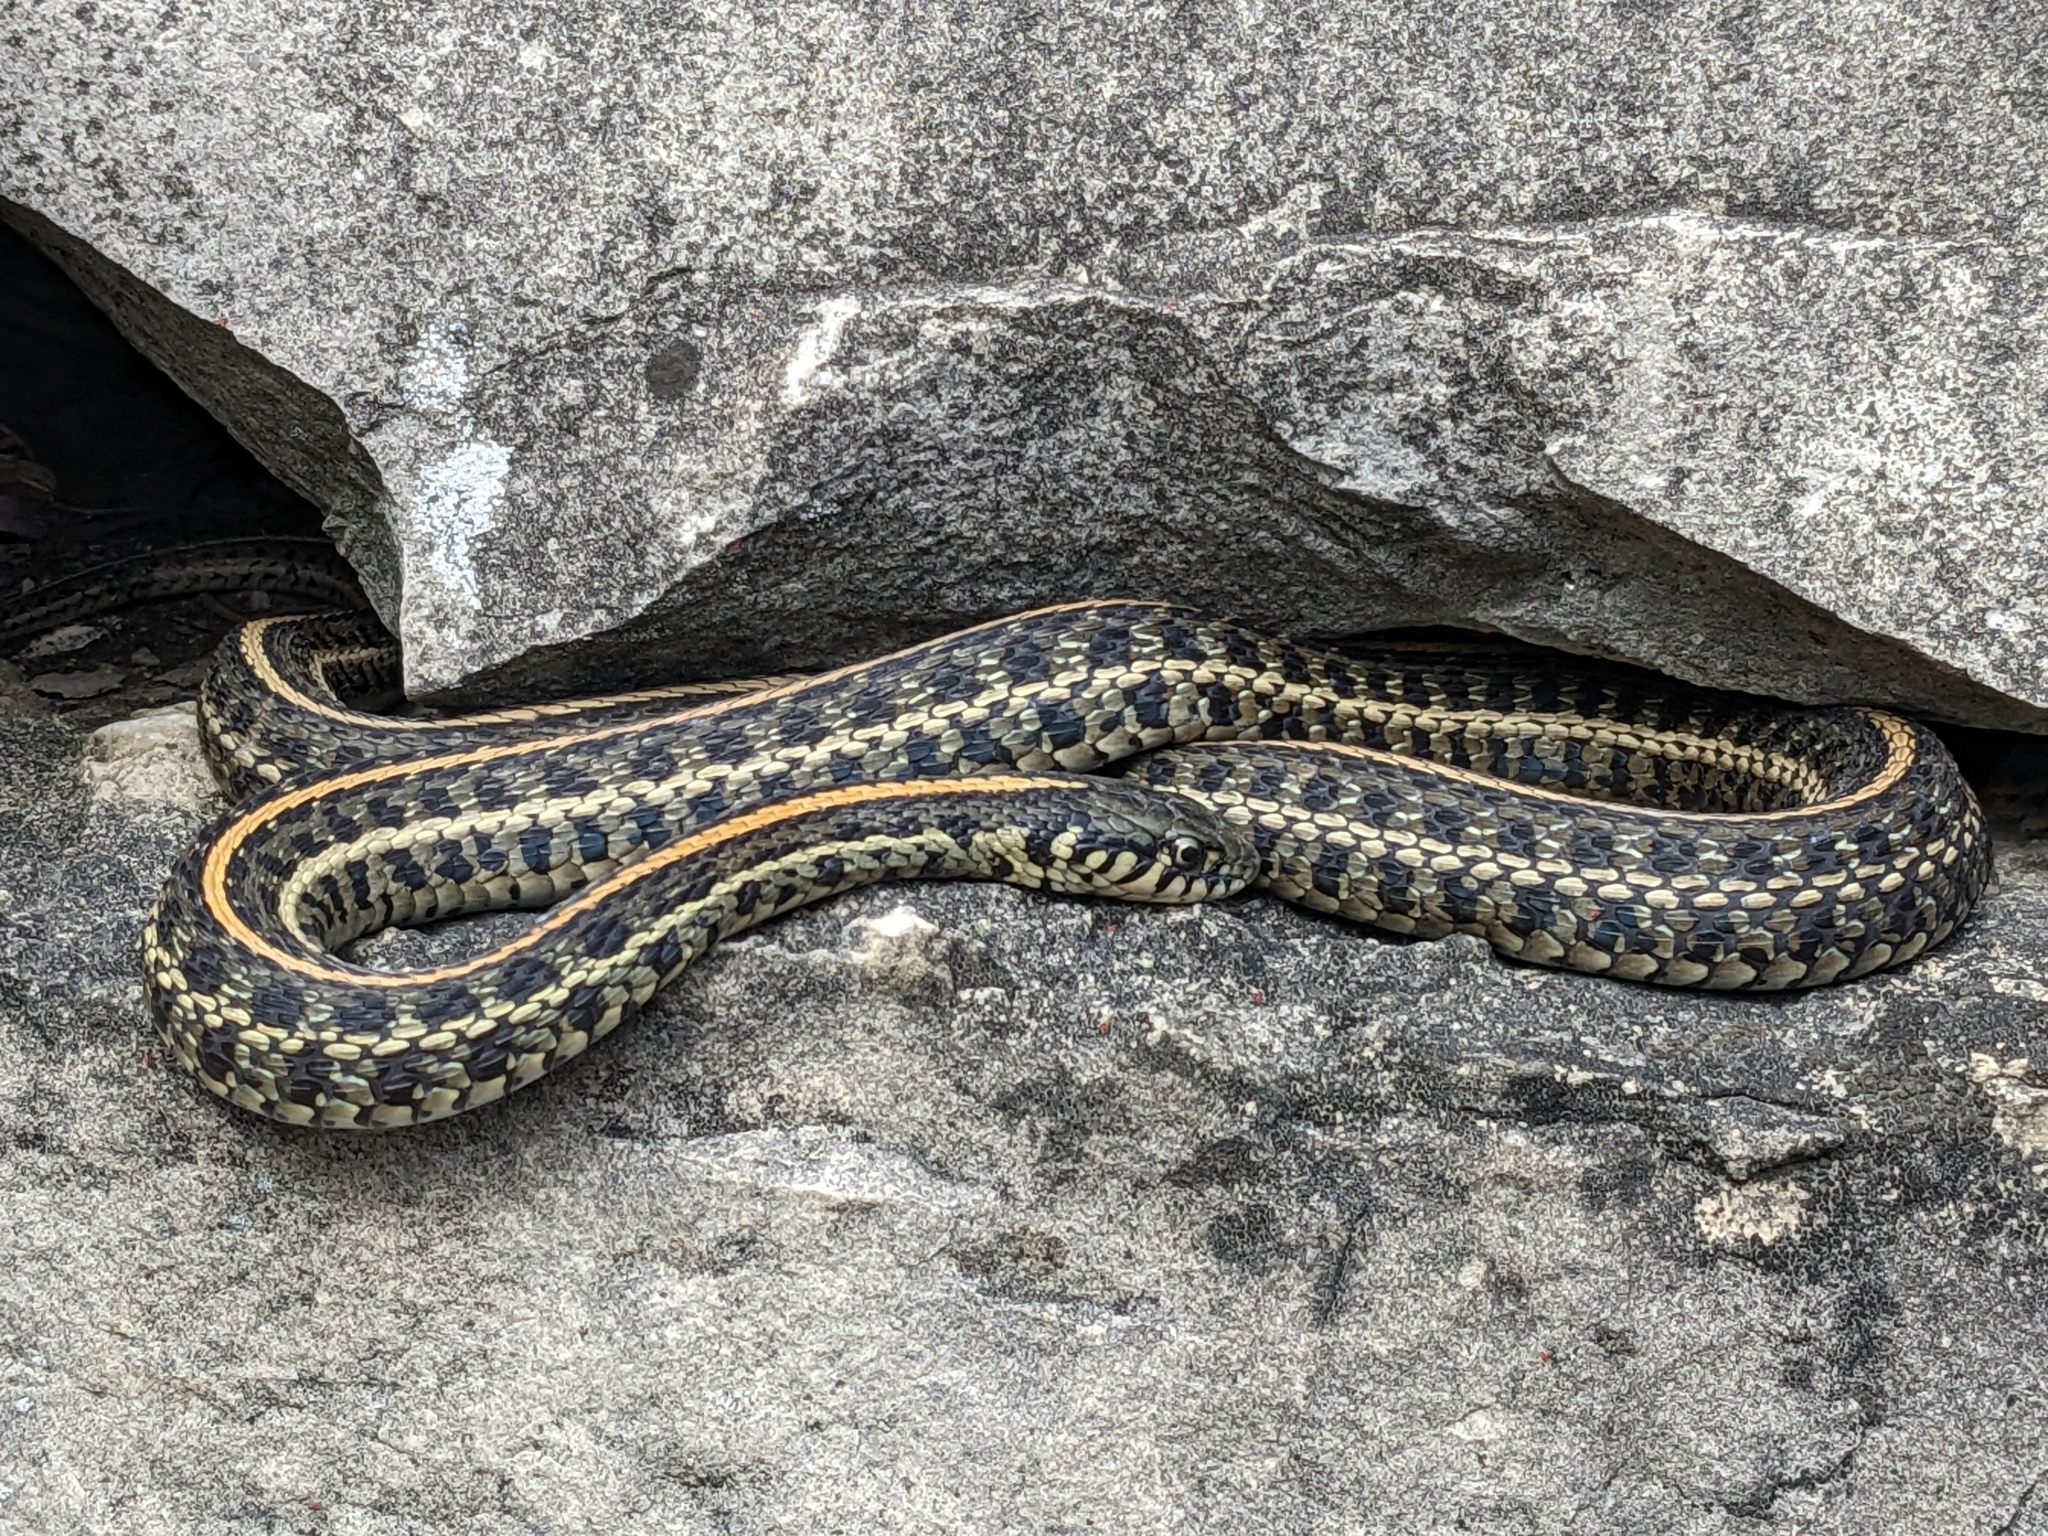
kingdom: Animalia
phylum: Chordata
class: Squamata
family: Colubridae
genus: Thamnophis
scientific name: Thamnophis radix
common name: Plains garter snake
